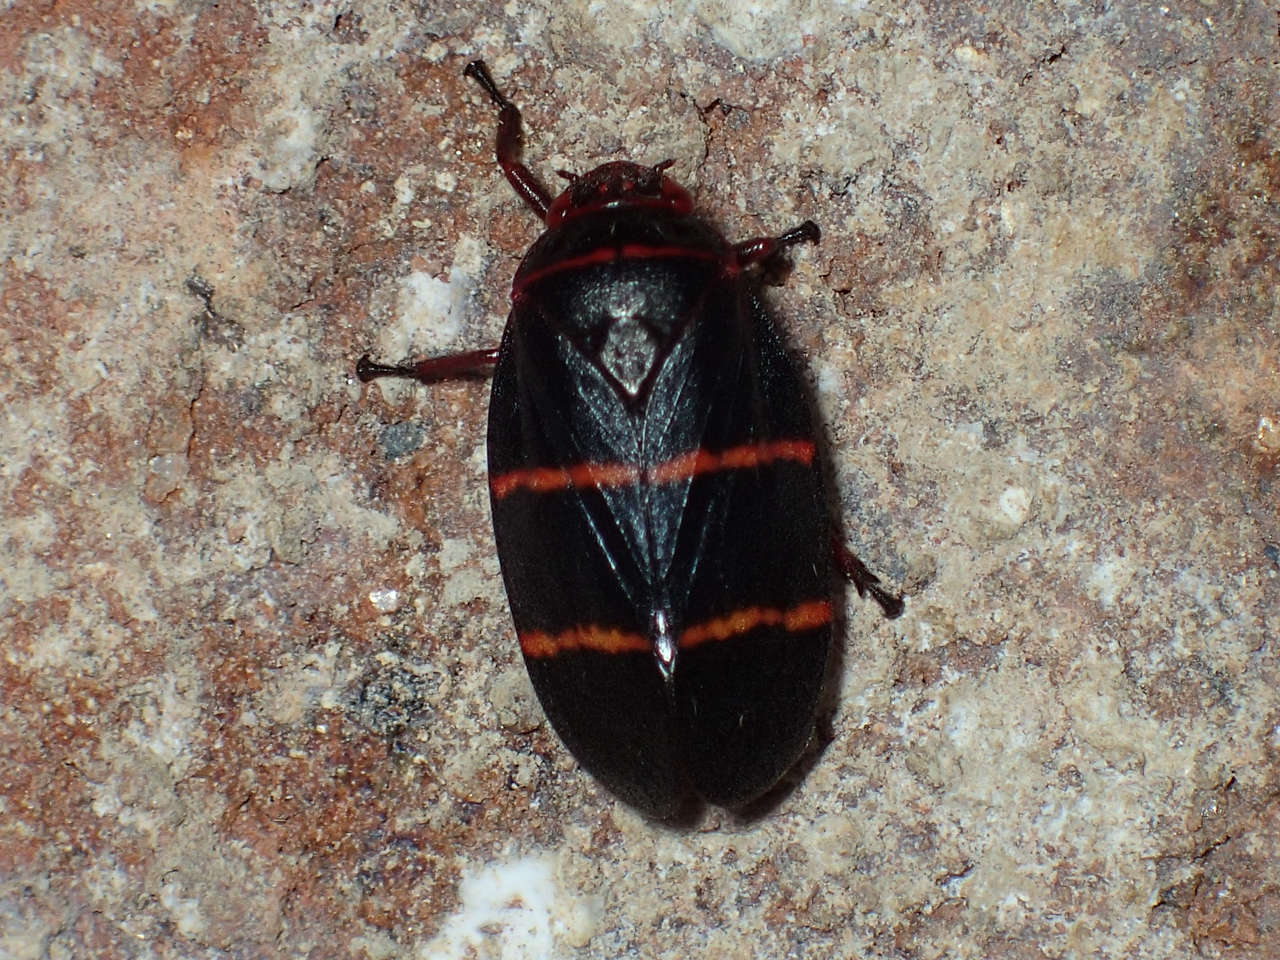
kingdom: Animalia
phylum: Arthropoda
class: Insecta
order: Hemiptera
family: Cercopidae
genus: Prosapia
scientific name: Prosapia bicincta
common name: Twolined spittlebug
